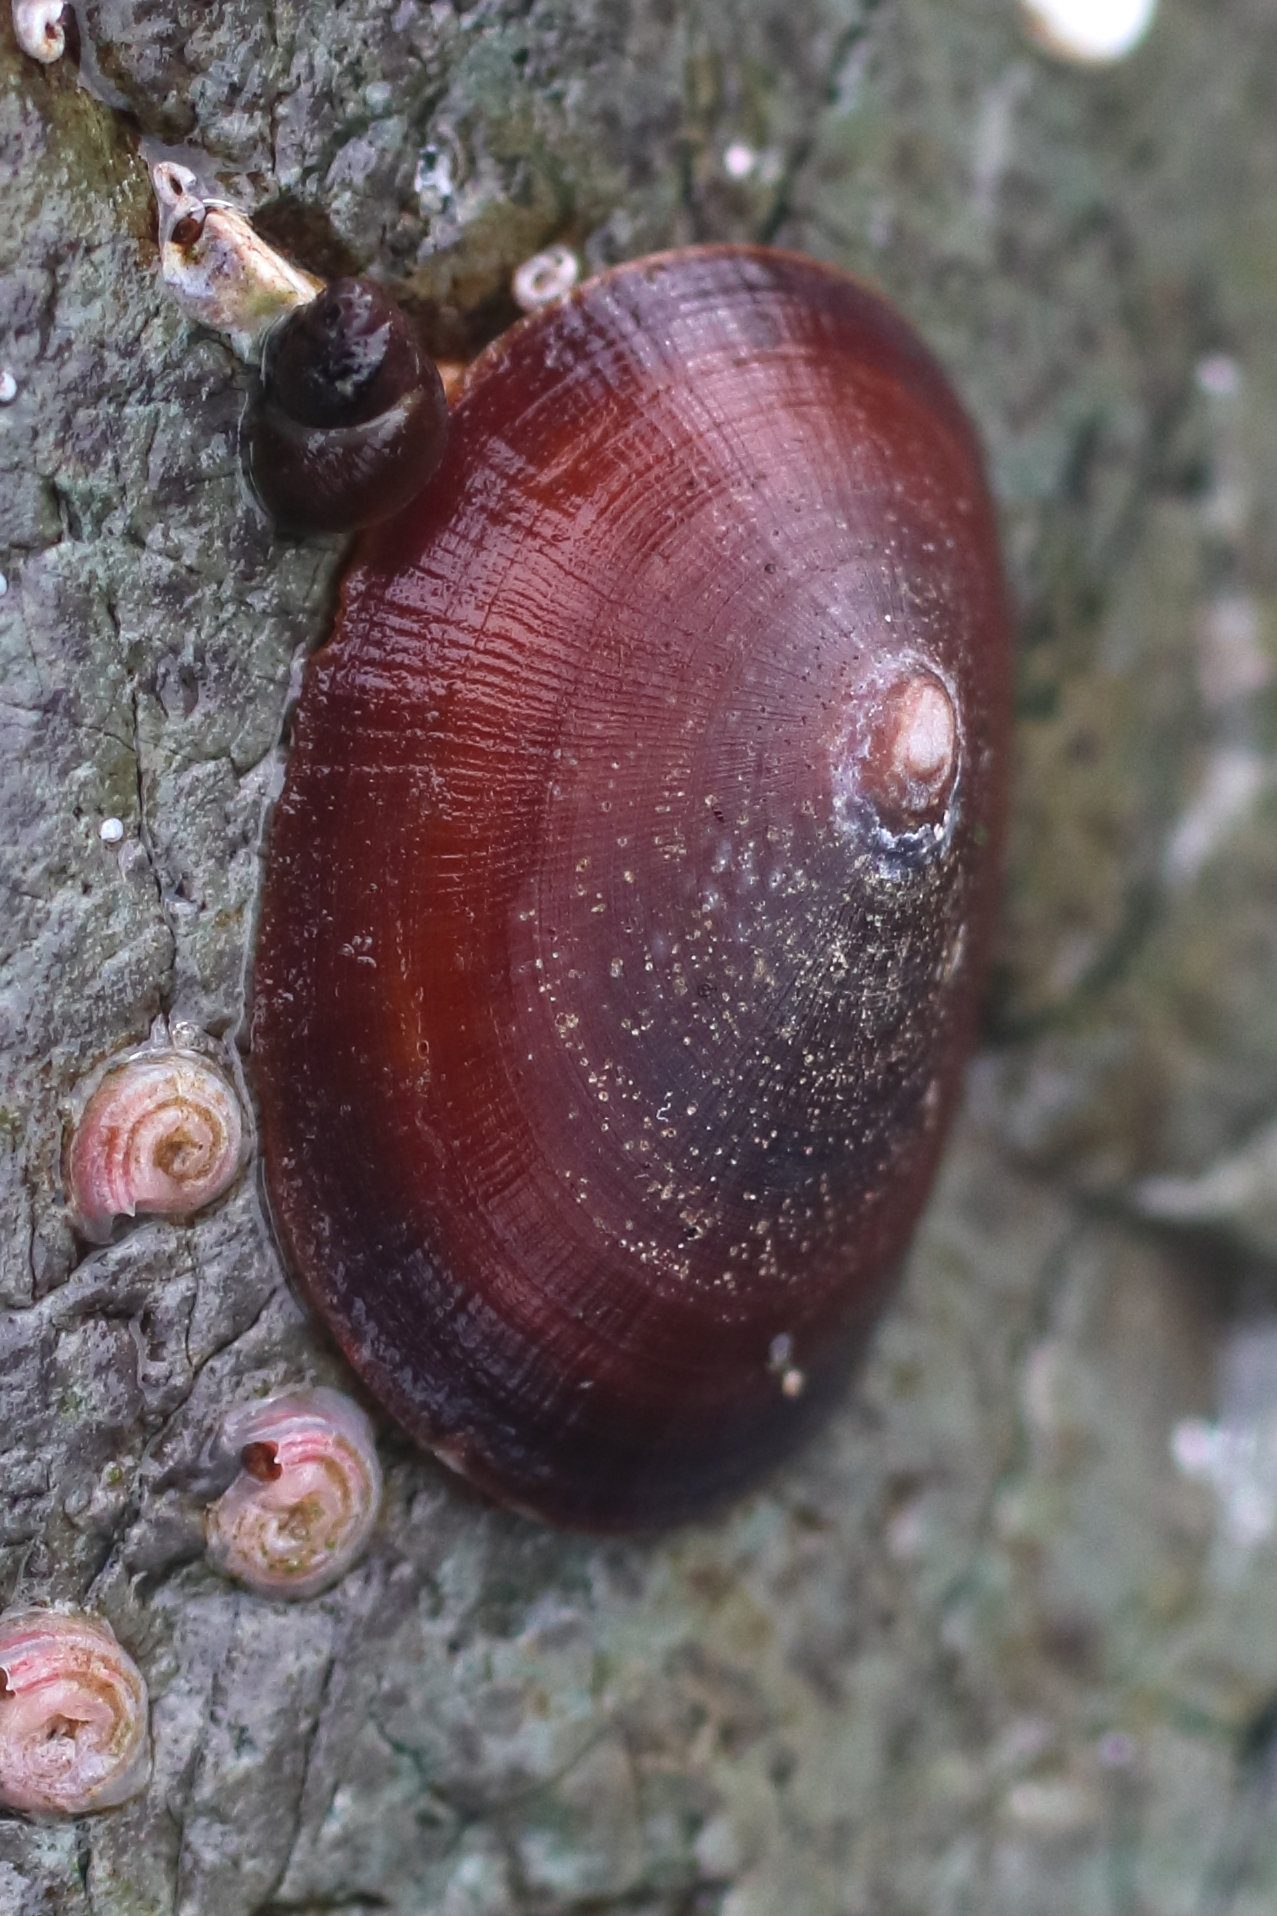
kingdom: Animalia
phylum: Mollusca
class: Gastropoda
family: Lottiidae
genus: Lottia
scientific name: Lottia instabilis
